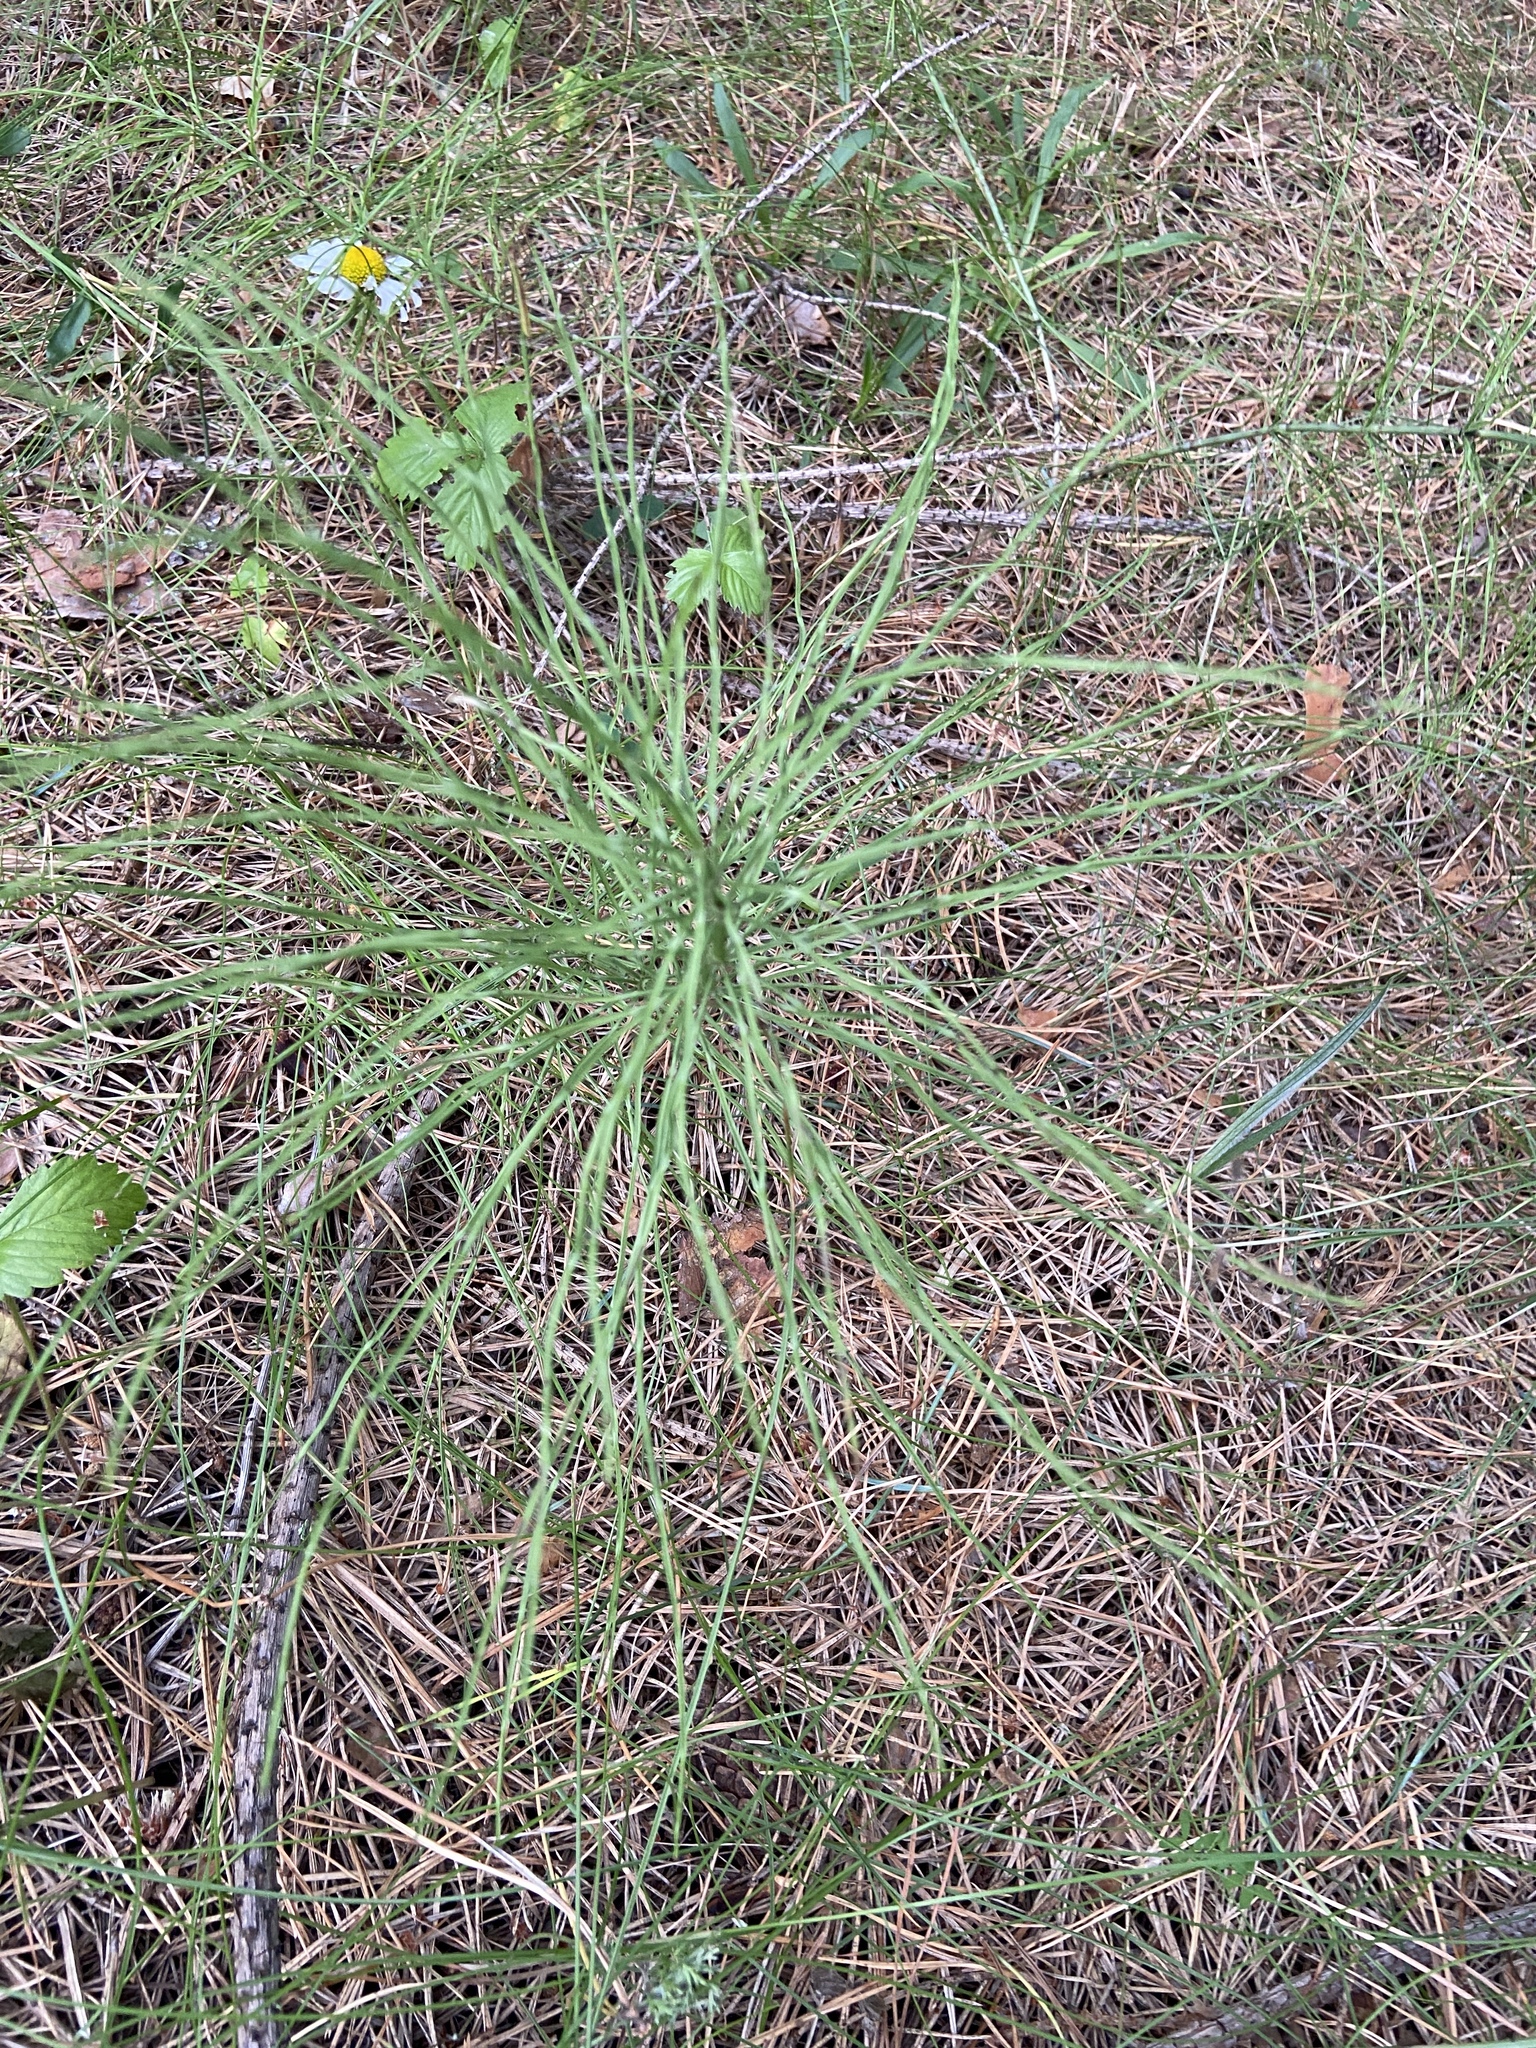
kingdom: Plantae
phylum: Tracheophyta
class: Polypodiopsida
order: Equisetales
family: Equisetaceae
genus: Equisetum
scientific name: Equisetum arvense
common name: Field horsetail
